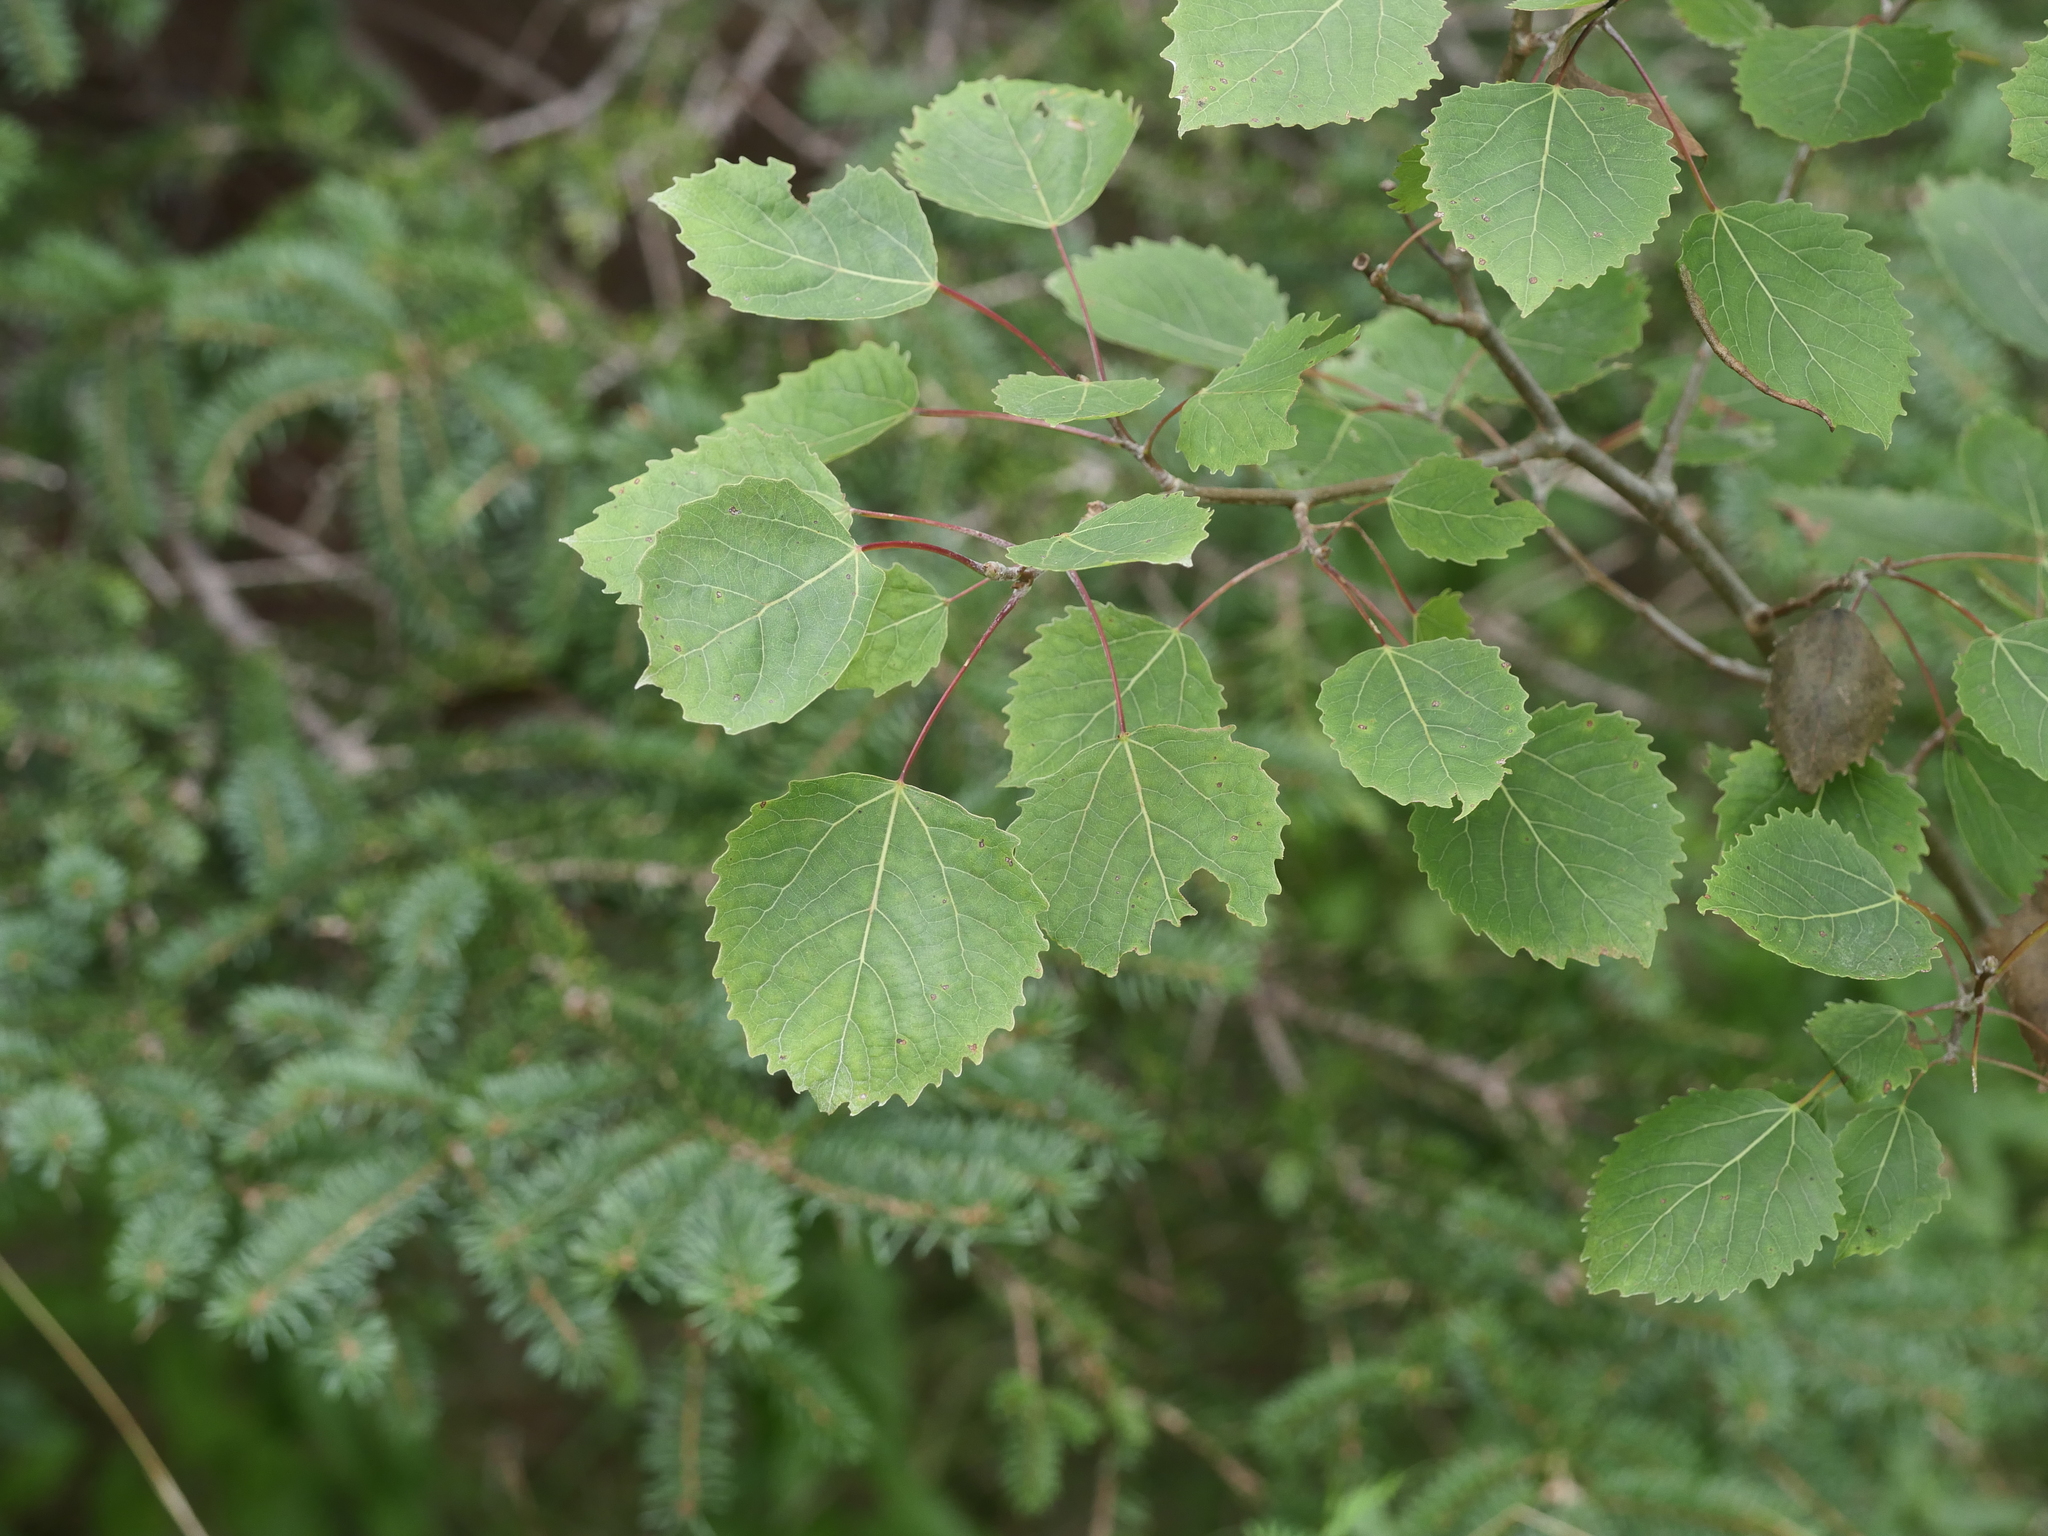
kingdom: Plantae
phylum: Tracheophyta
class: Magnoliopsida
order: Malpighiales
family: Salicaceae
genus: Populus
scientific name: Populus grandidentata
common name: Bigtooth aspen
